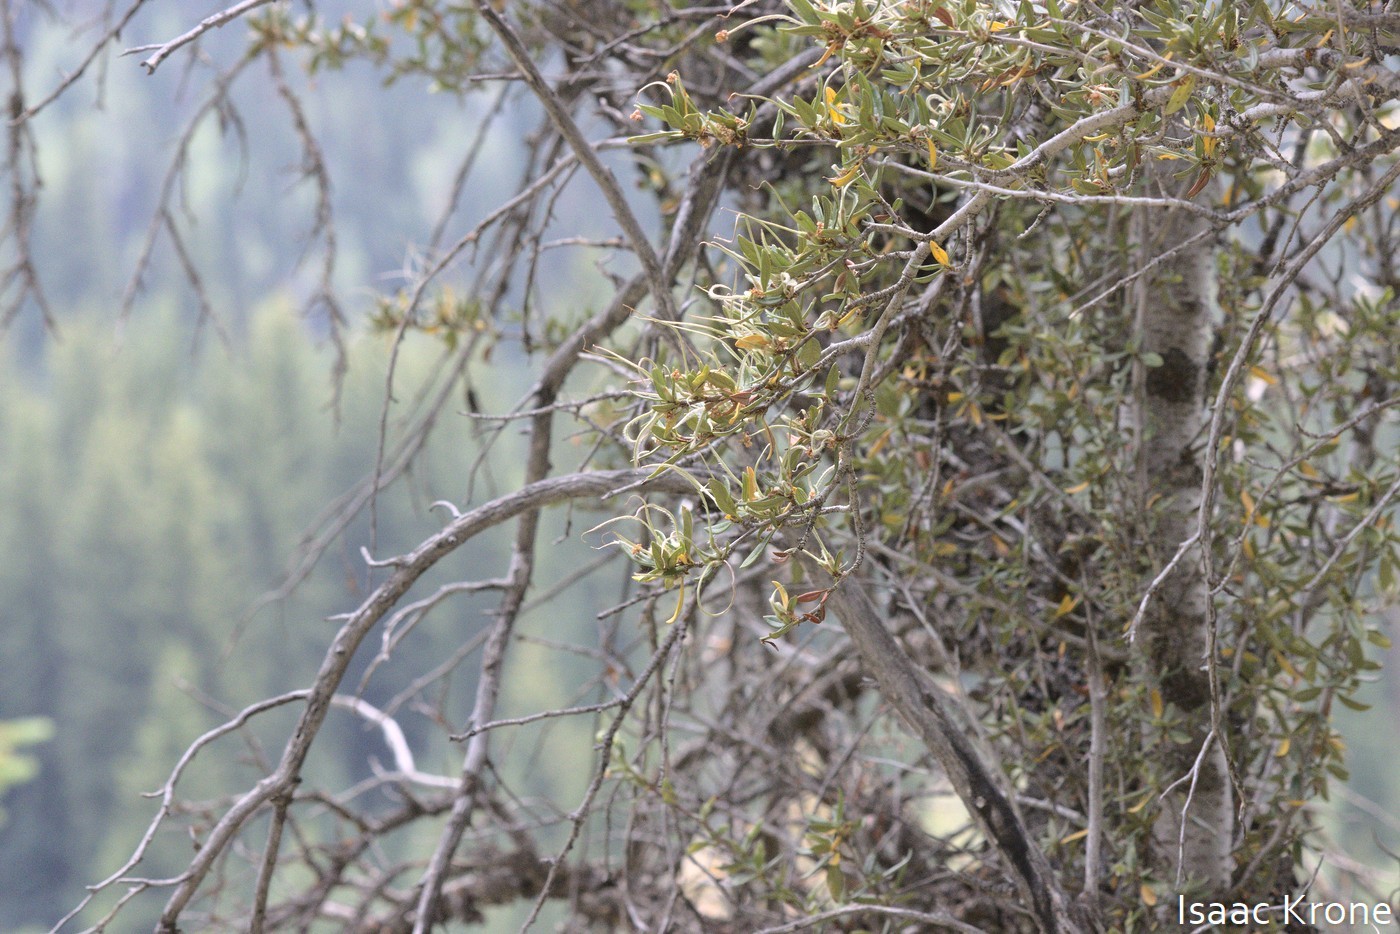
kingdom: Plantae
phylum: Tracheophyta
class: Magnoliopsida
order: Rosales
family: Rosaceae
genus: Cercocarpus
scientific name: Cercocarpus ledifolius
